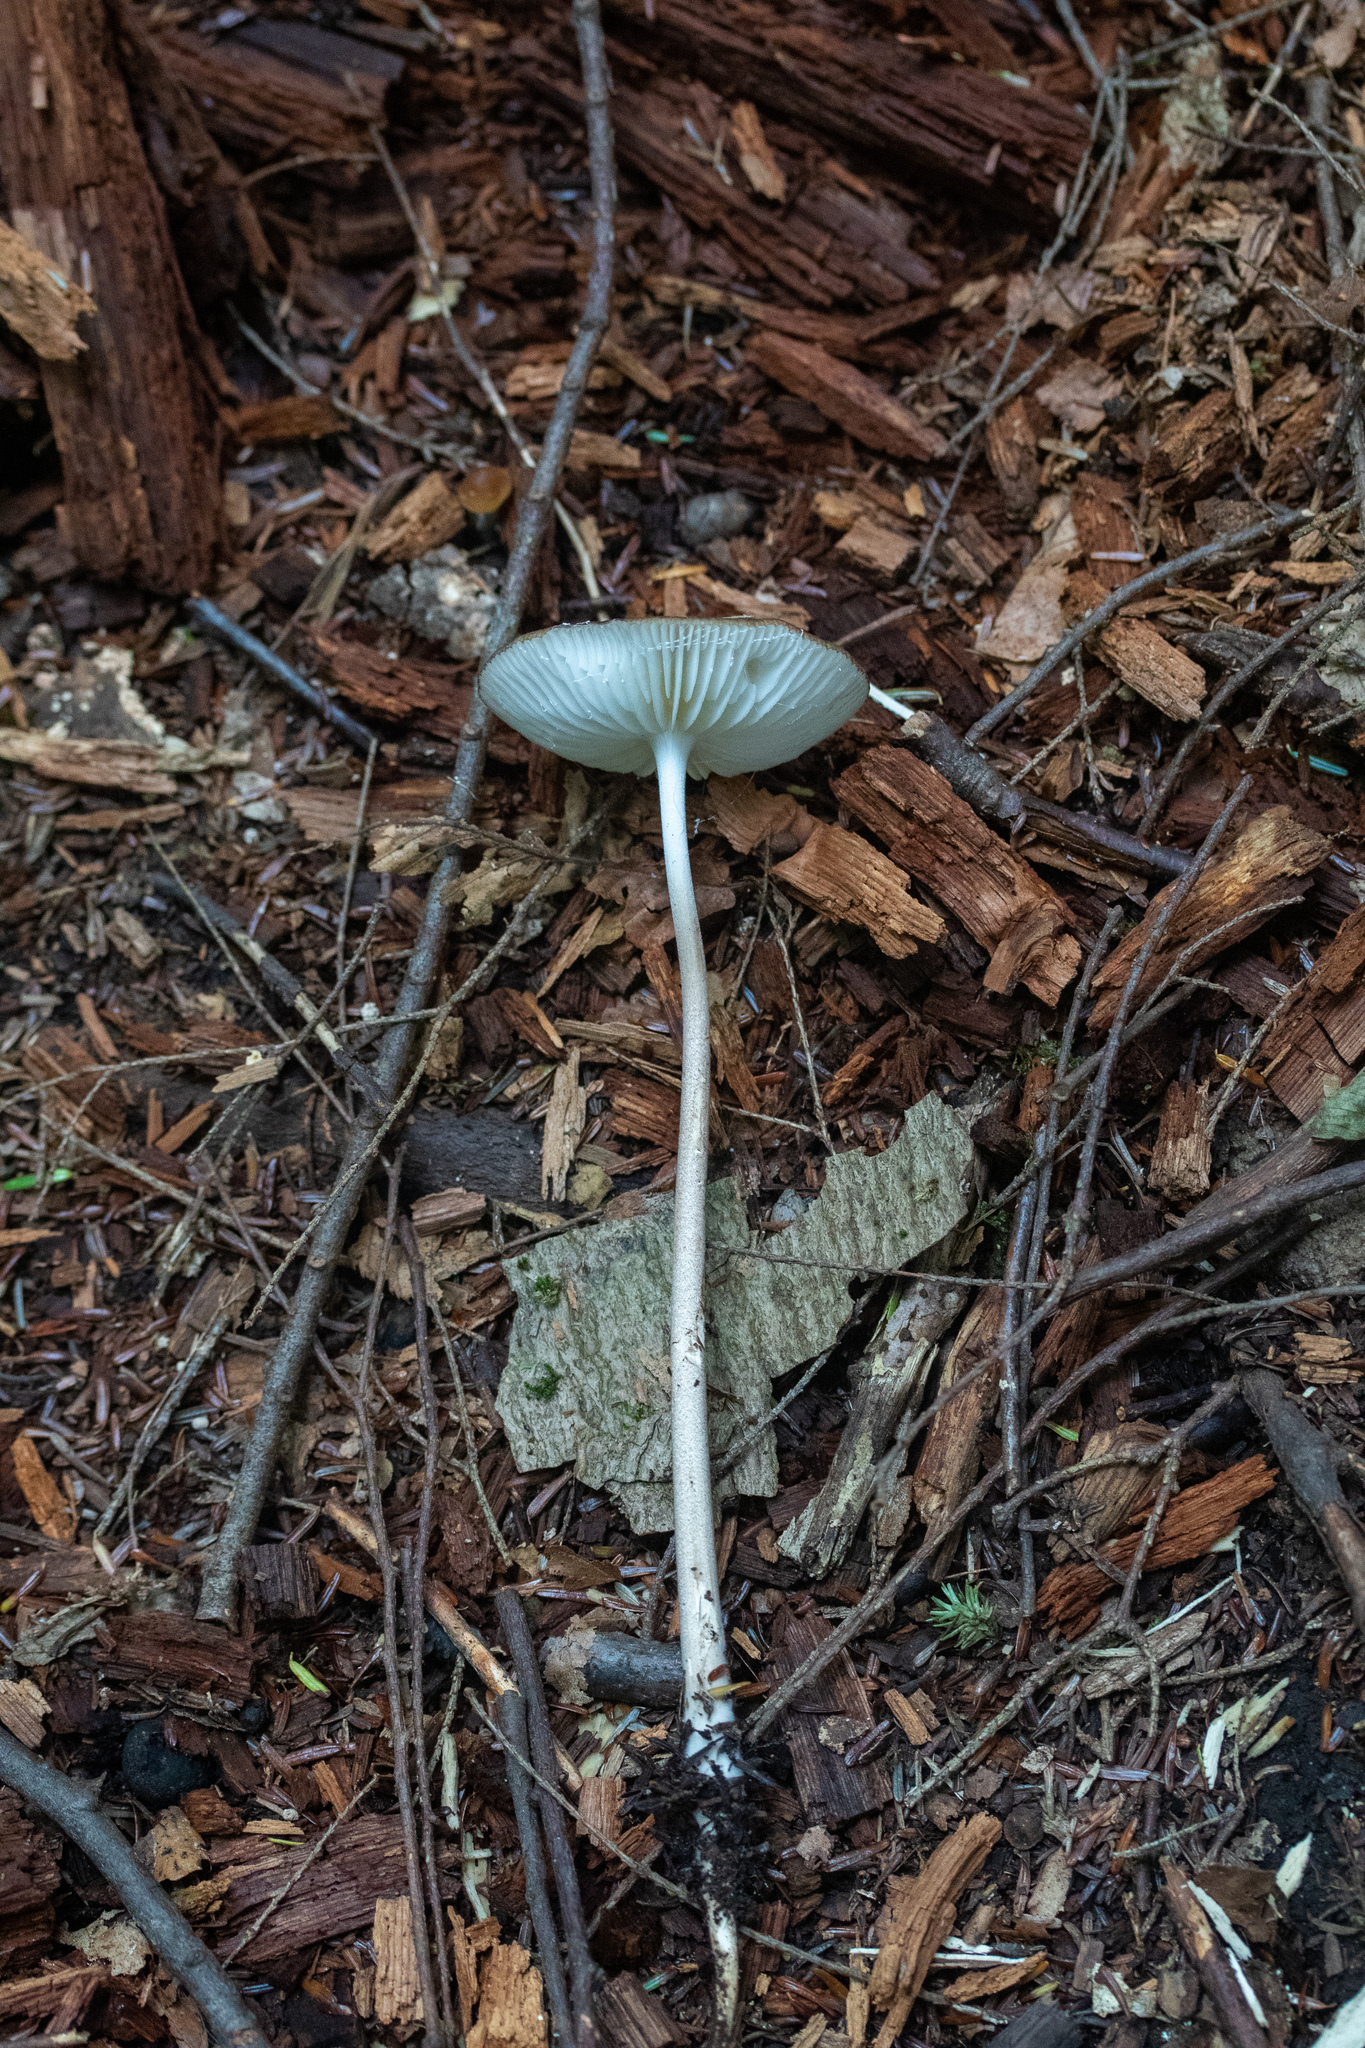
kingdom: Fungi
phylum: Basidiomycota
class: Agaricomycetes
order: Agaricales
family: Physalacriaceae
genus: Hymenopellis
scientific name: Hymenopellis furfuracea
